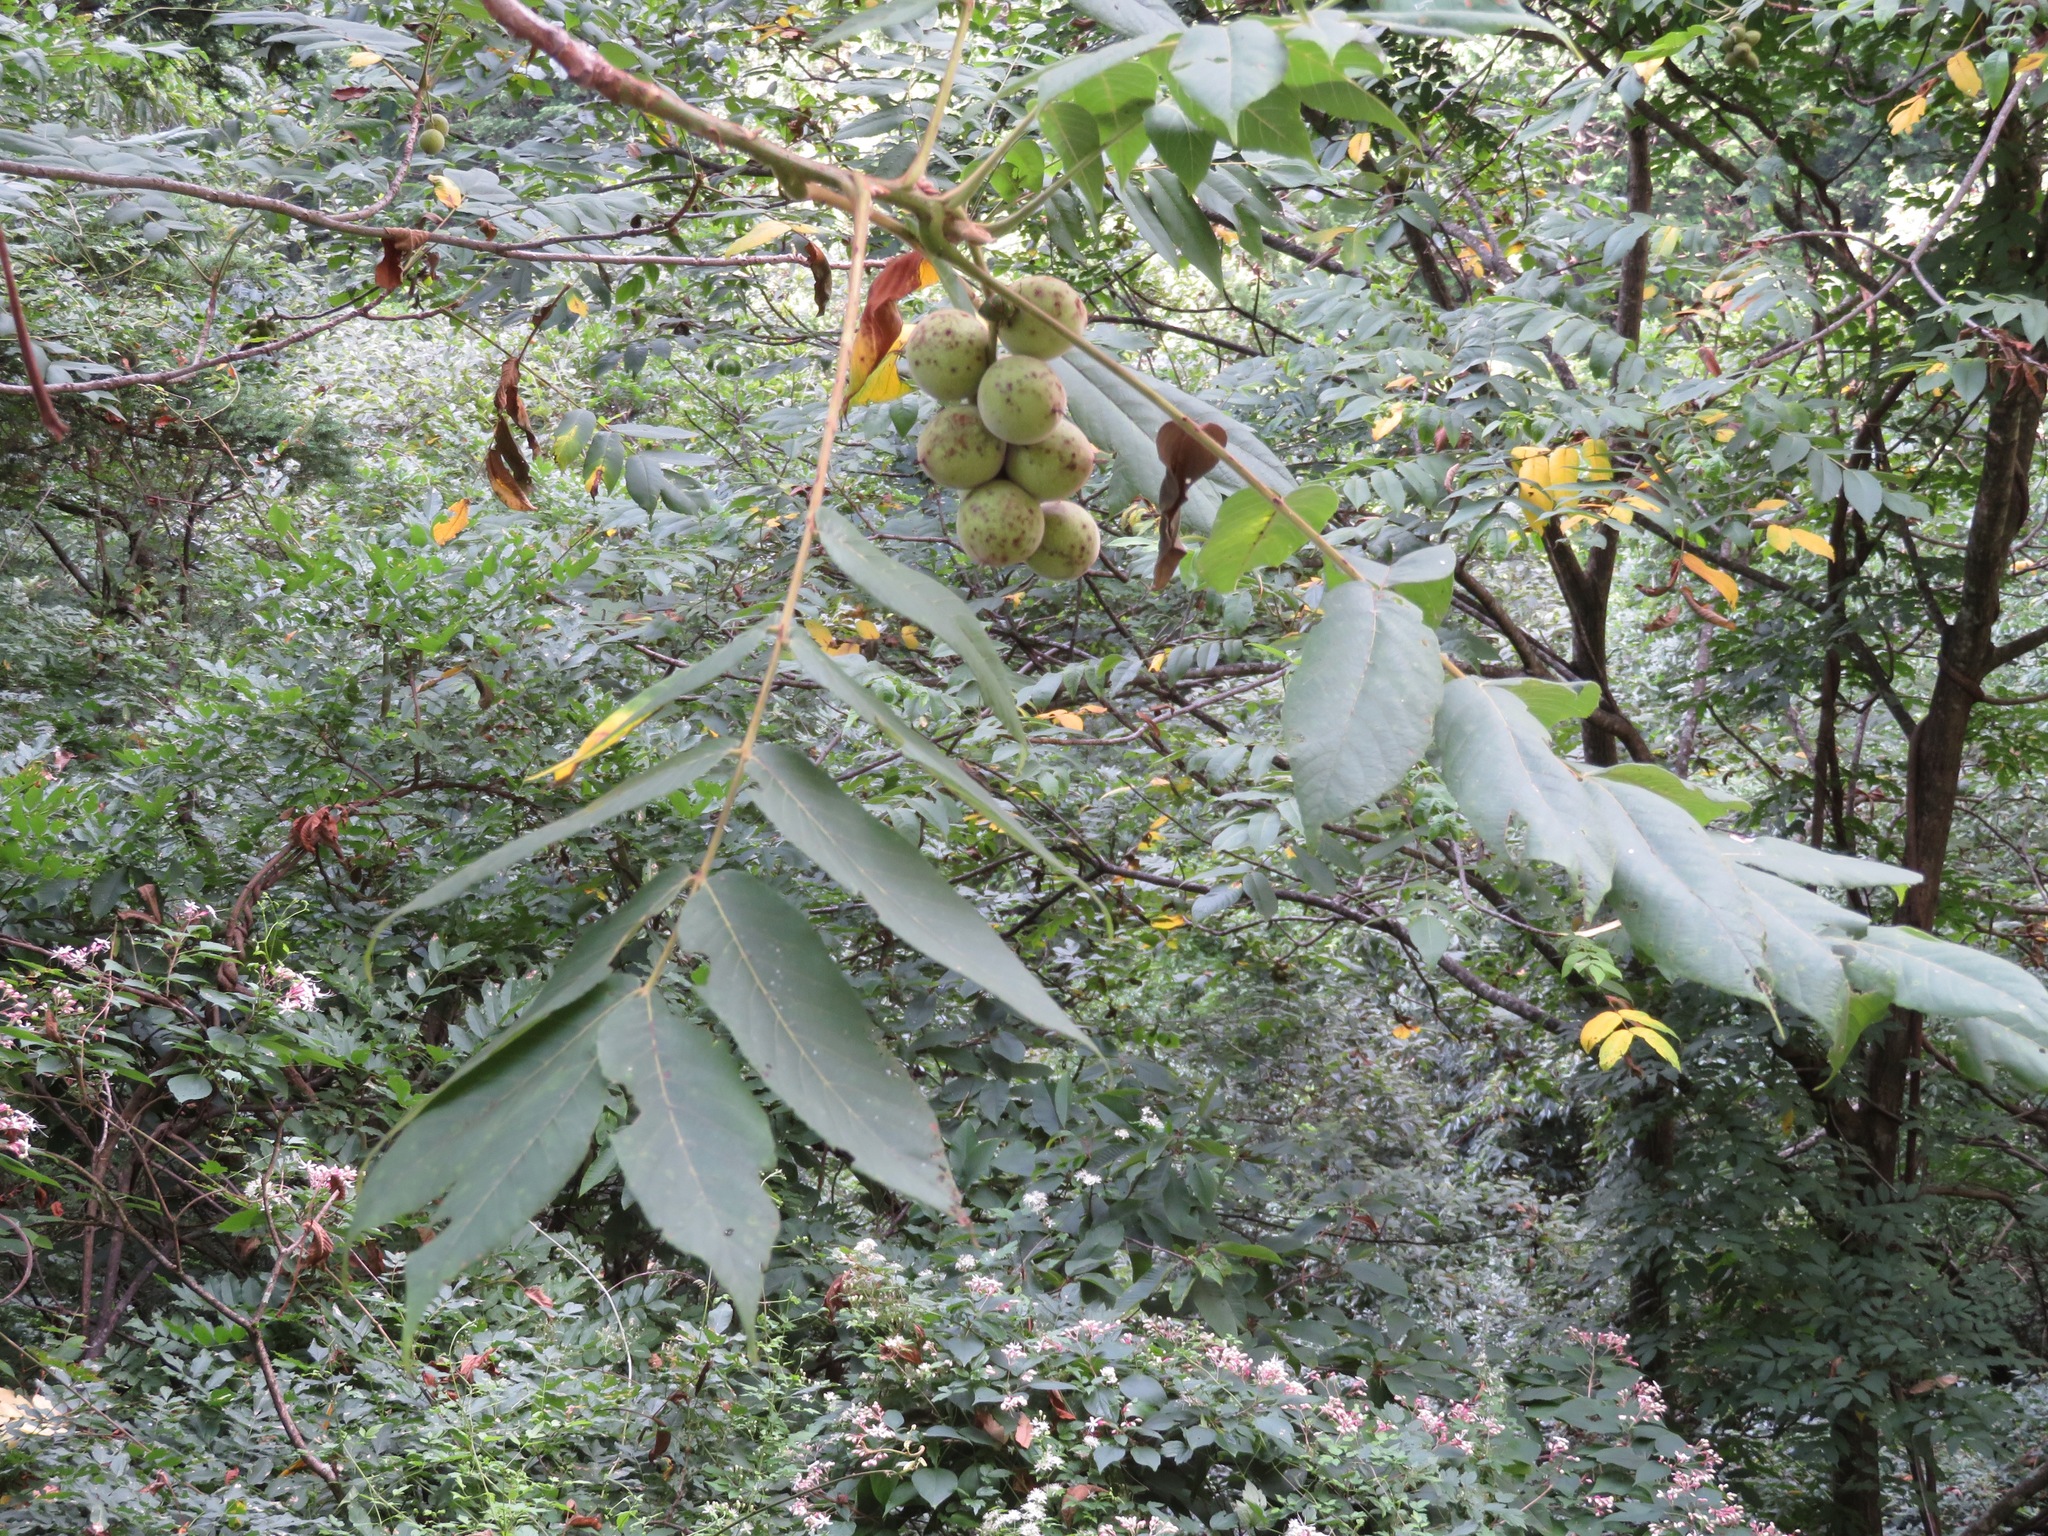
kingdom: Plantae
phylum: Tracheophyta
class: Magnoliopsida
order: Fagales
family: Juglandaceae
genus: Juglans
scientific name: Juglans ailantifolia
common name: Japanese walnut
